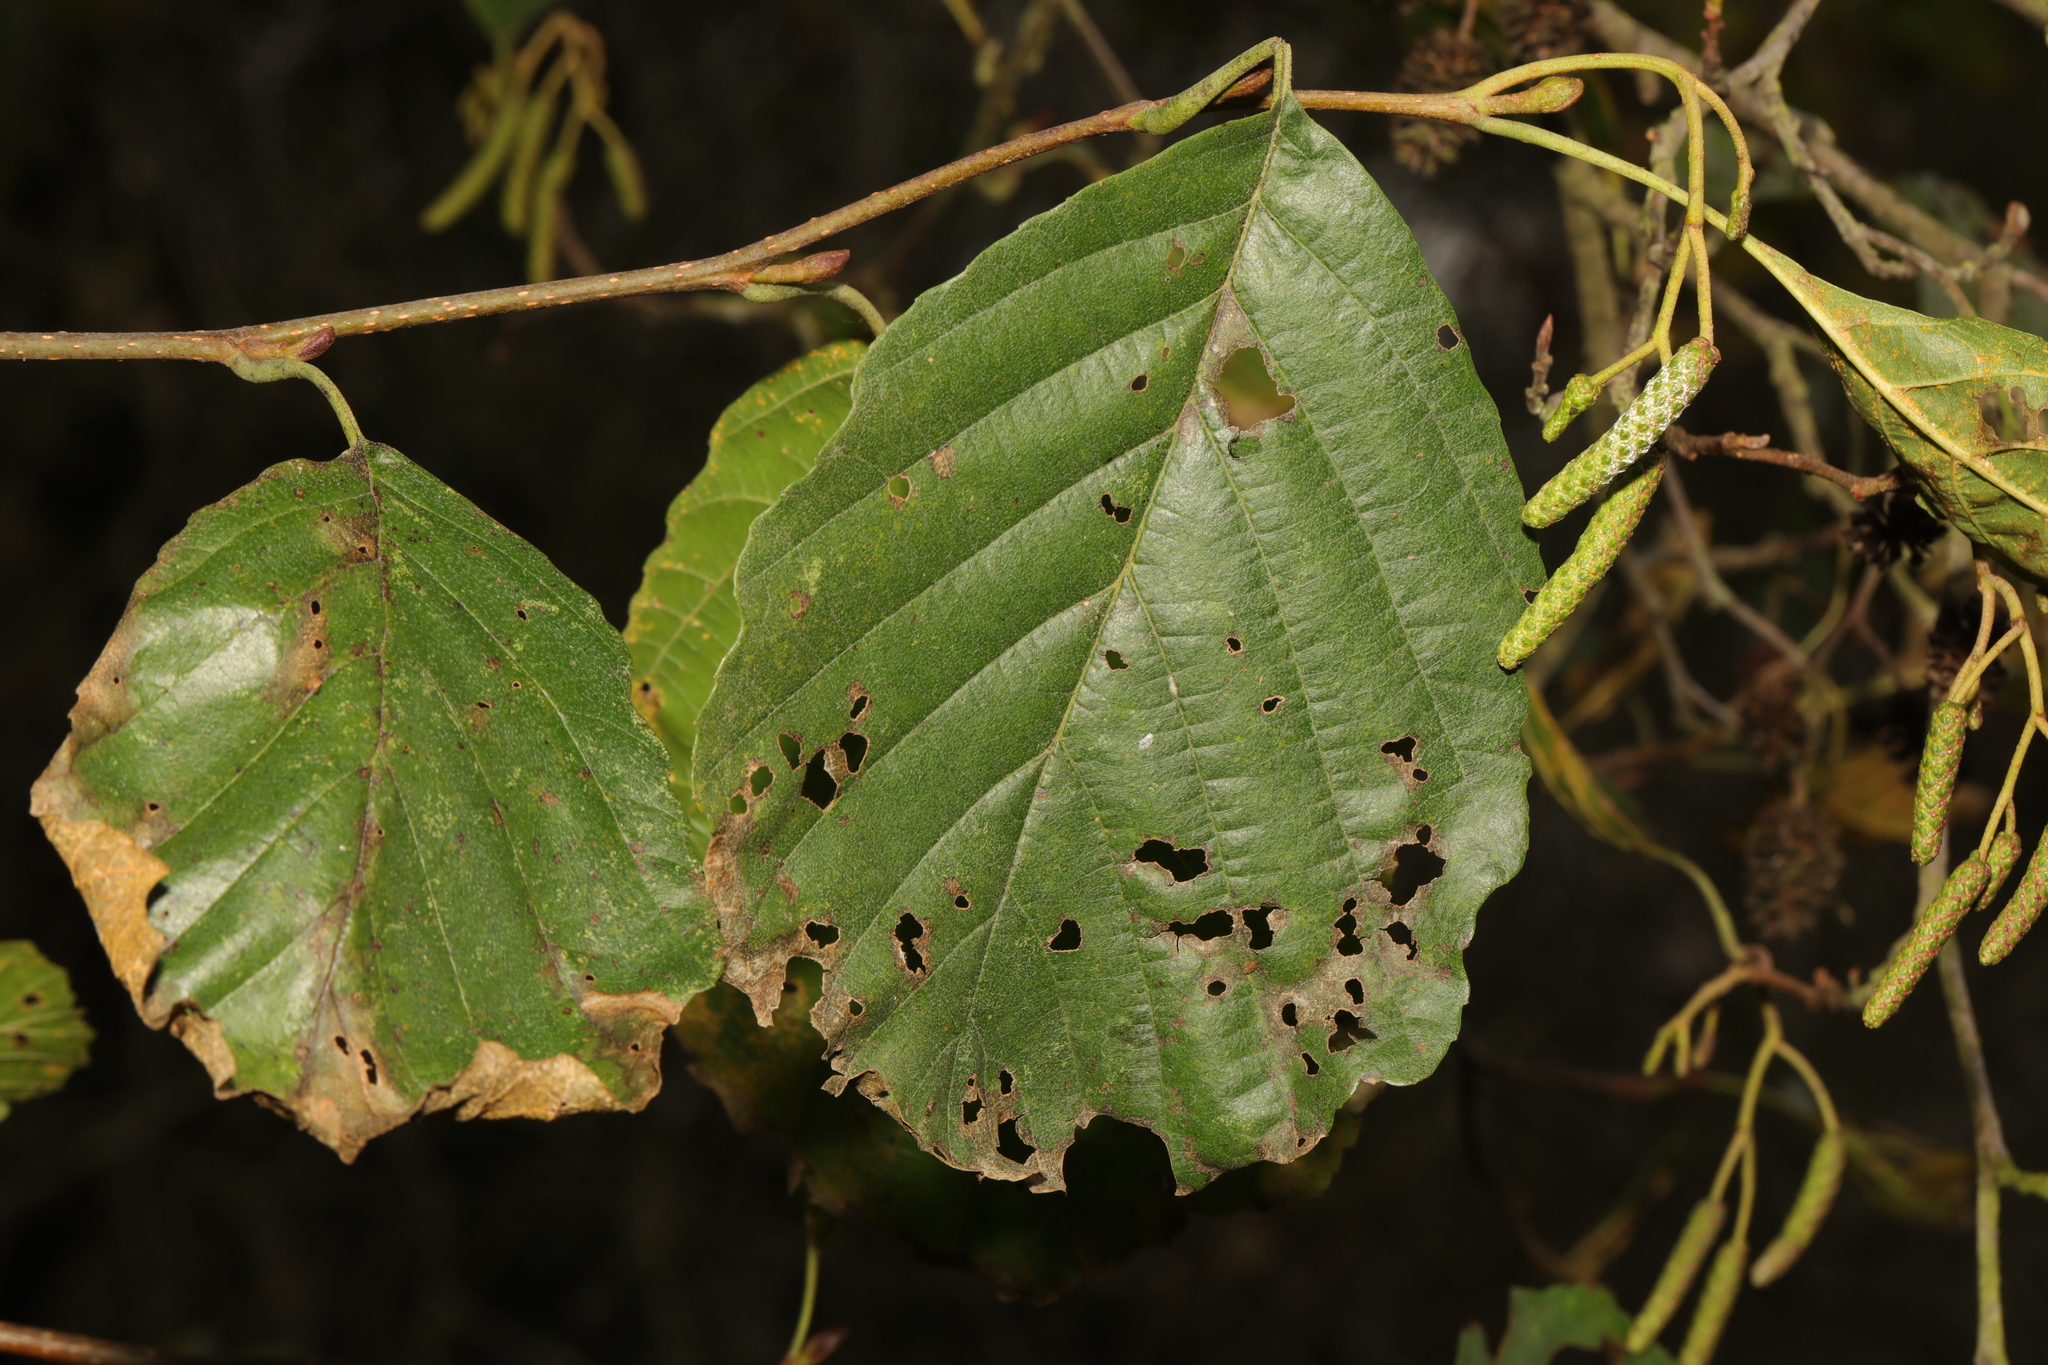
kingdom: Plantae
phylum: Tracheophyta
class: Magnoliopsida
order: Fagales
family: Betulaceae
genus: Alnus
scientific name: Alnus glutinosa
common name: Black alder
